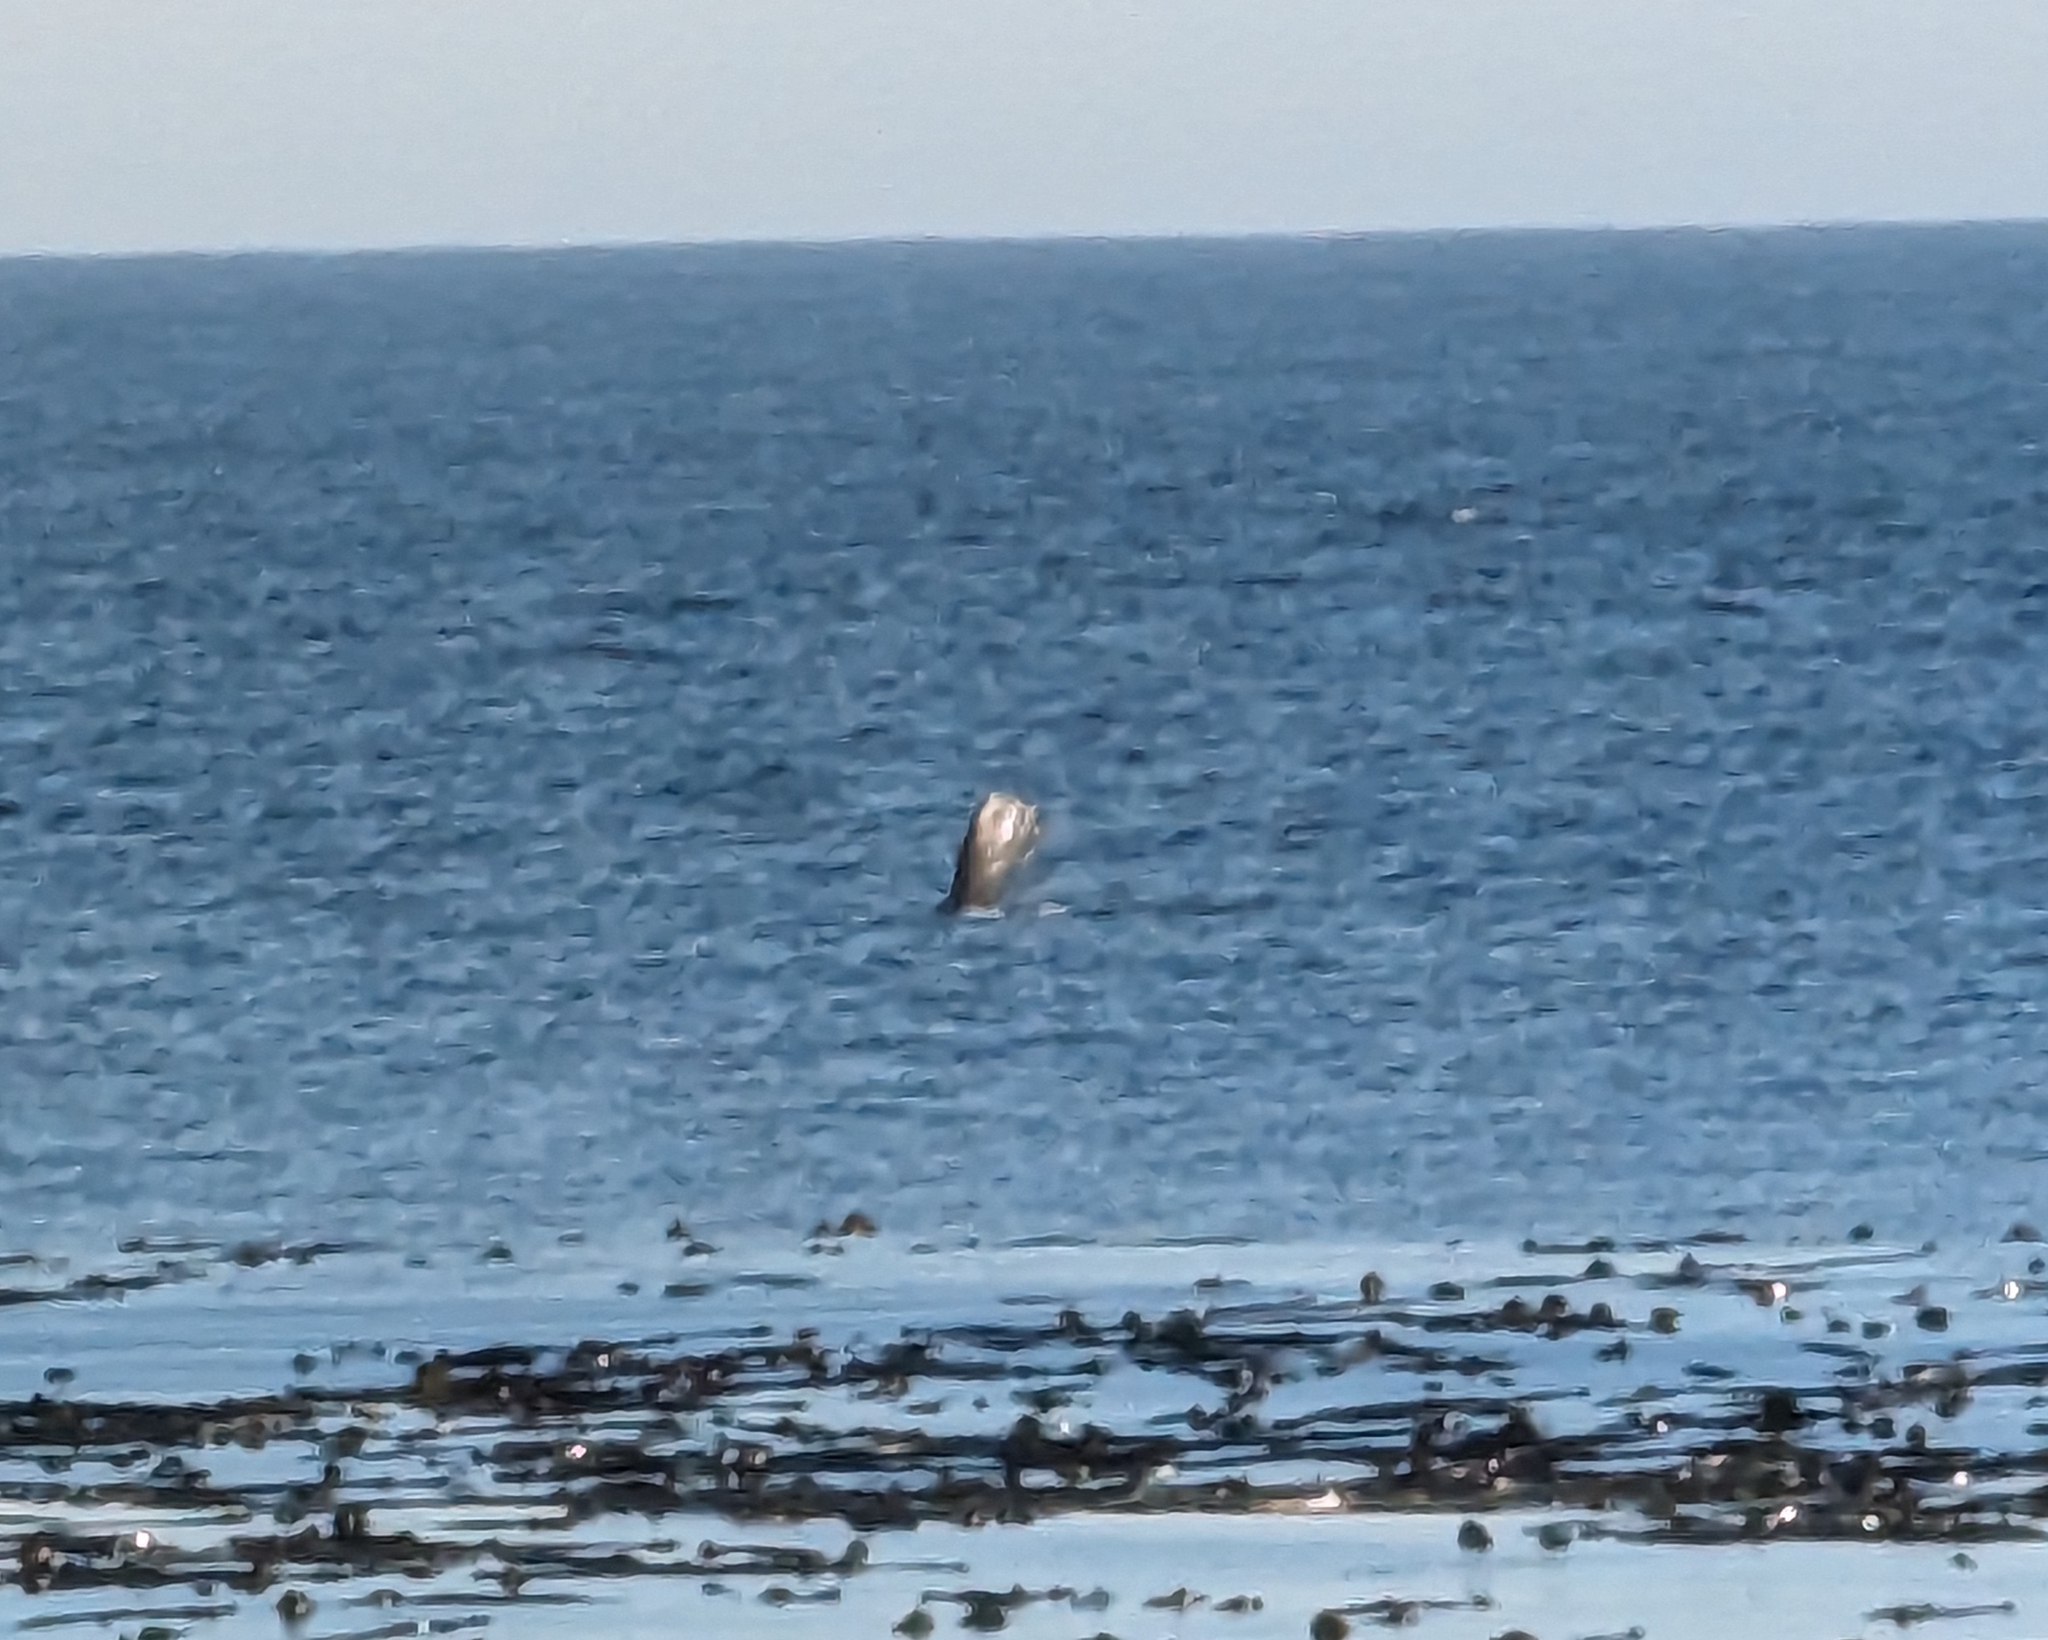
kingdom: Animalia
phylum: Chordata
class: Mammalia
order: Cetacea
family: Balaenopteridae
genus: Megaptera
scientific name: Megaptera novaeangliae
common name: Humpback whale
